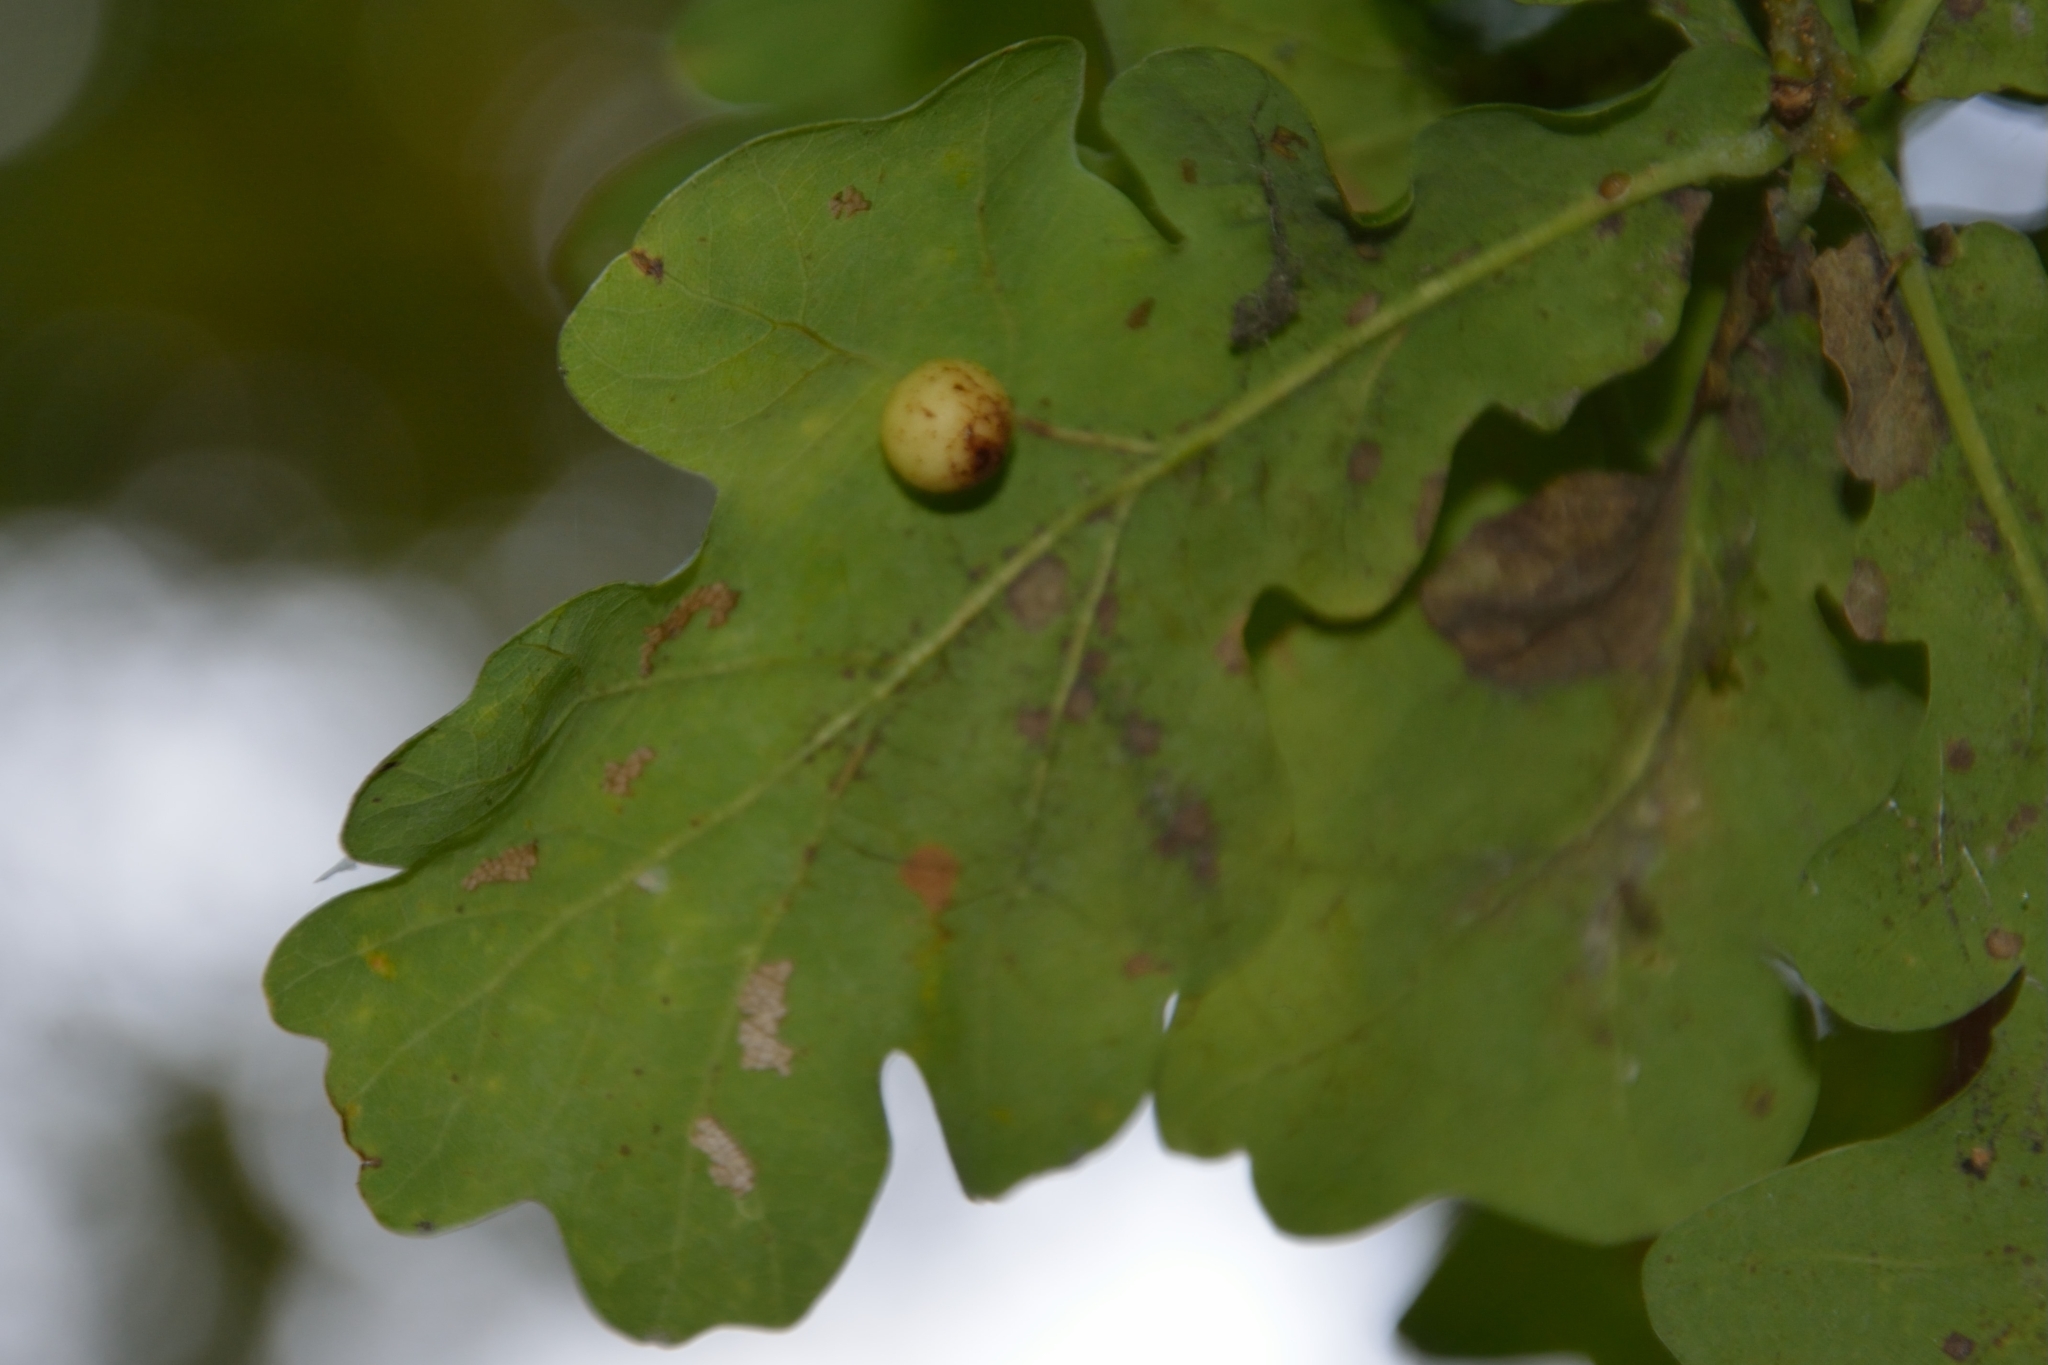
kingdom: Animalia
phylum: Arthropoda
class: Insecta
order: Hymenoptera
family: Cynipidae
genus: Cynips
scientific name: Cynips quercusfolii
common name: Cherry gall
